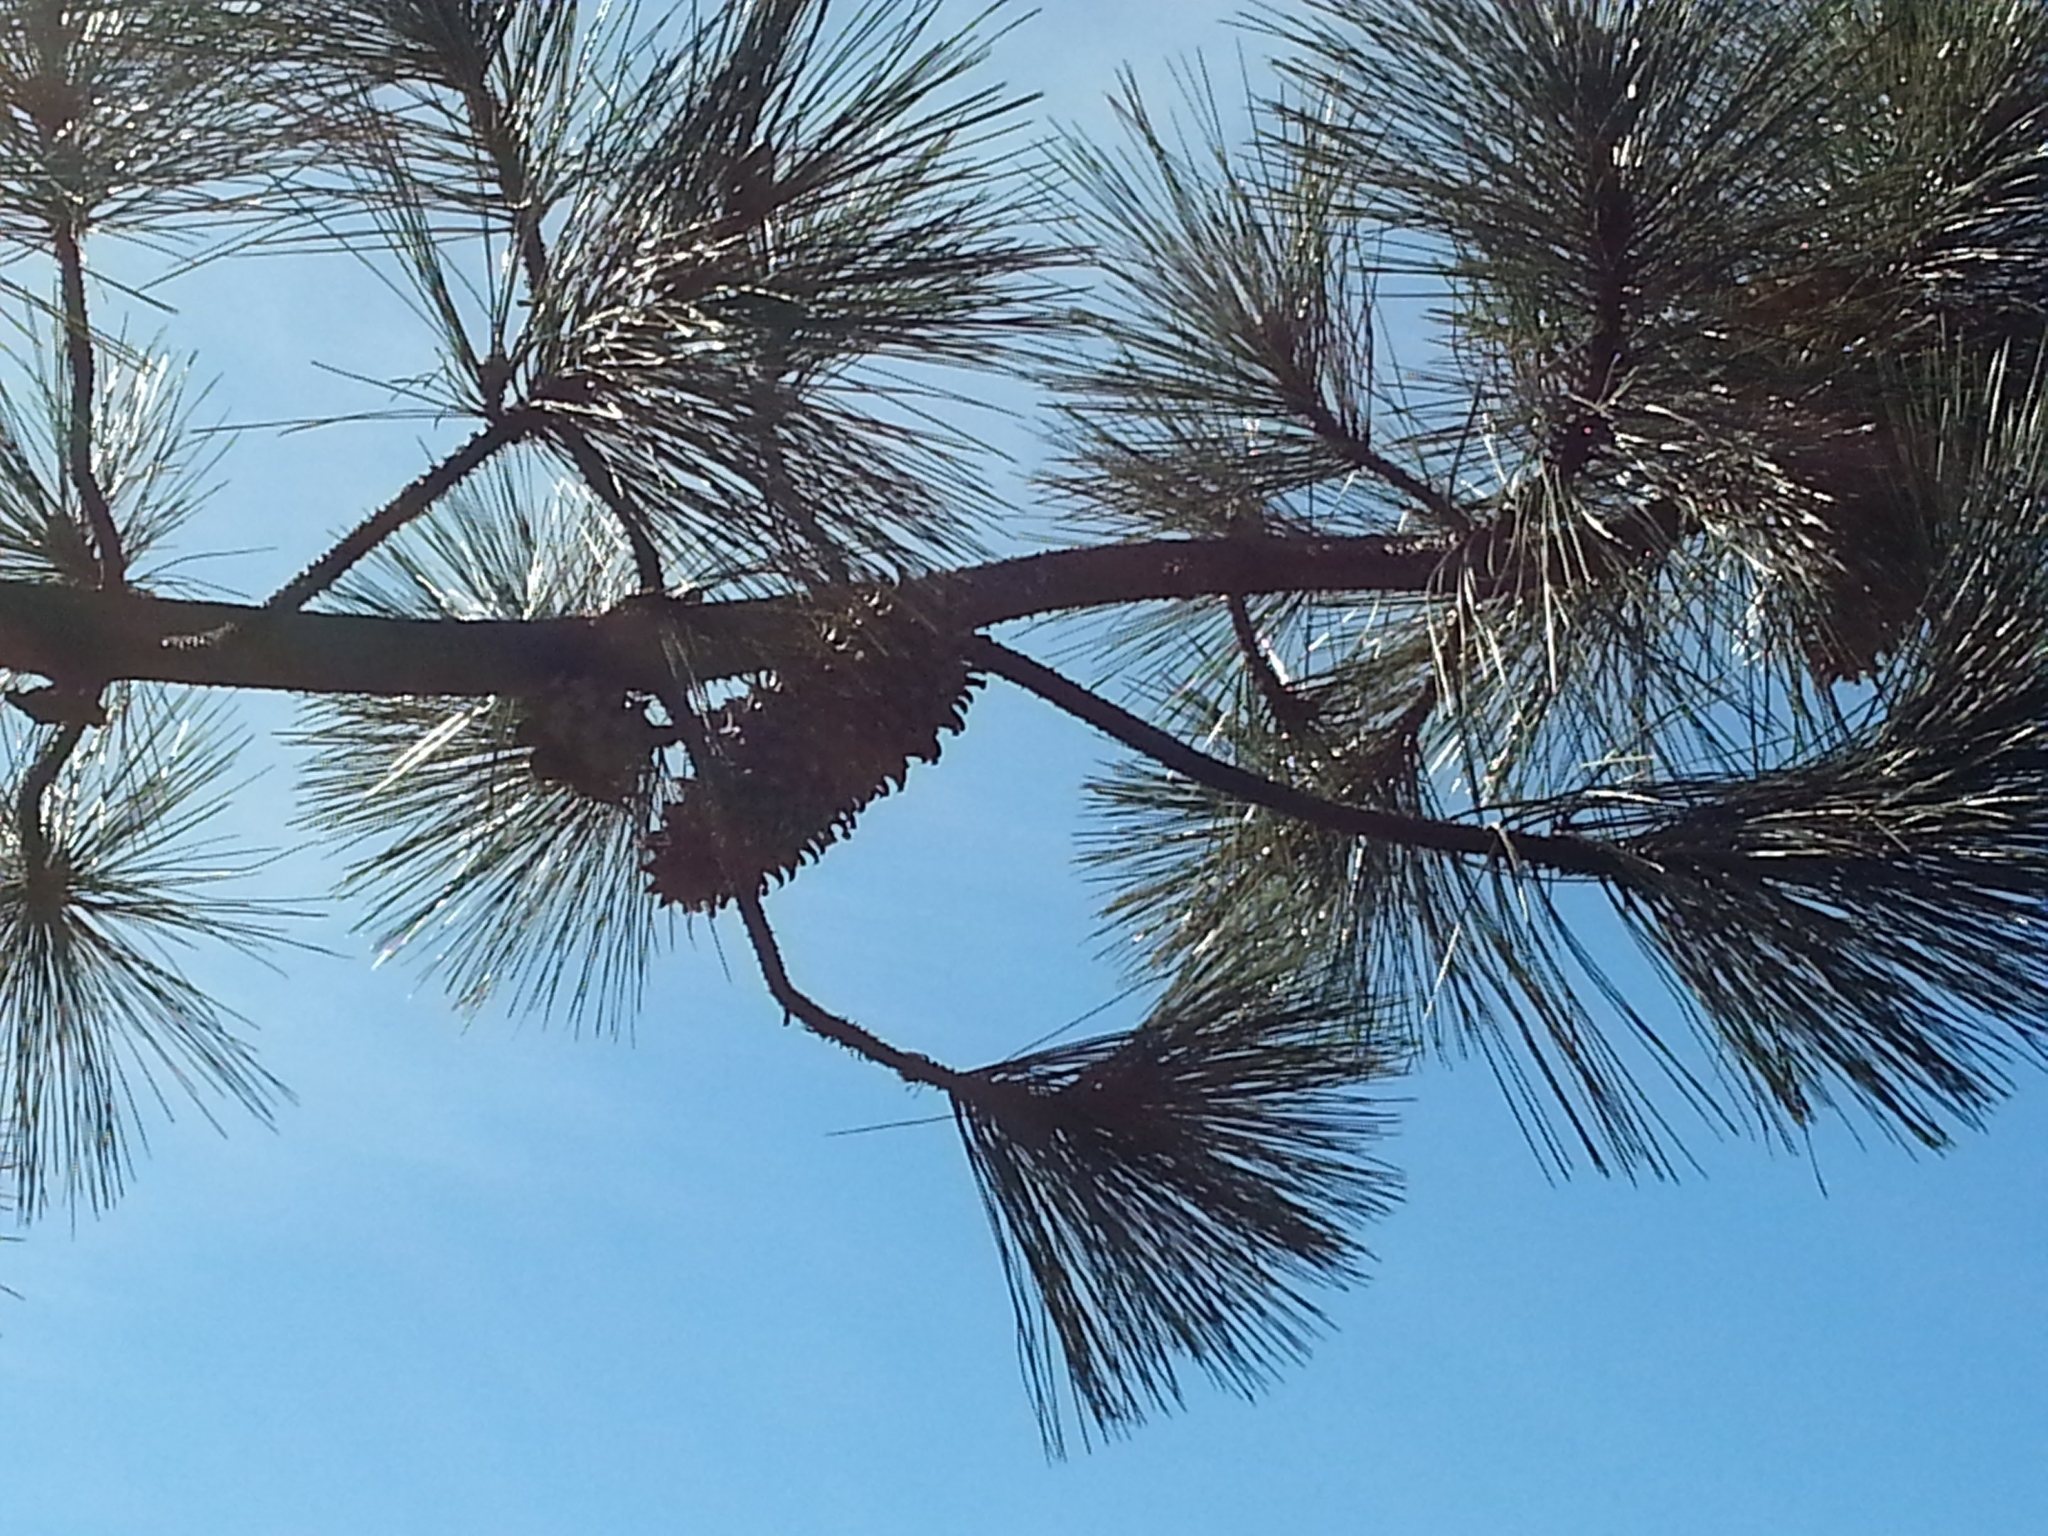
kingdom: Plantae
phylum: Tracheophyta
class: Pinopsida
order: Pinales
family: Pinaceae
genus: Pinus
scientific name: Pinus sabiniana
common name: Bull pine
